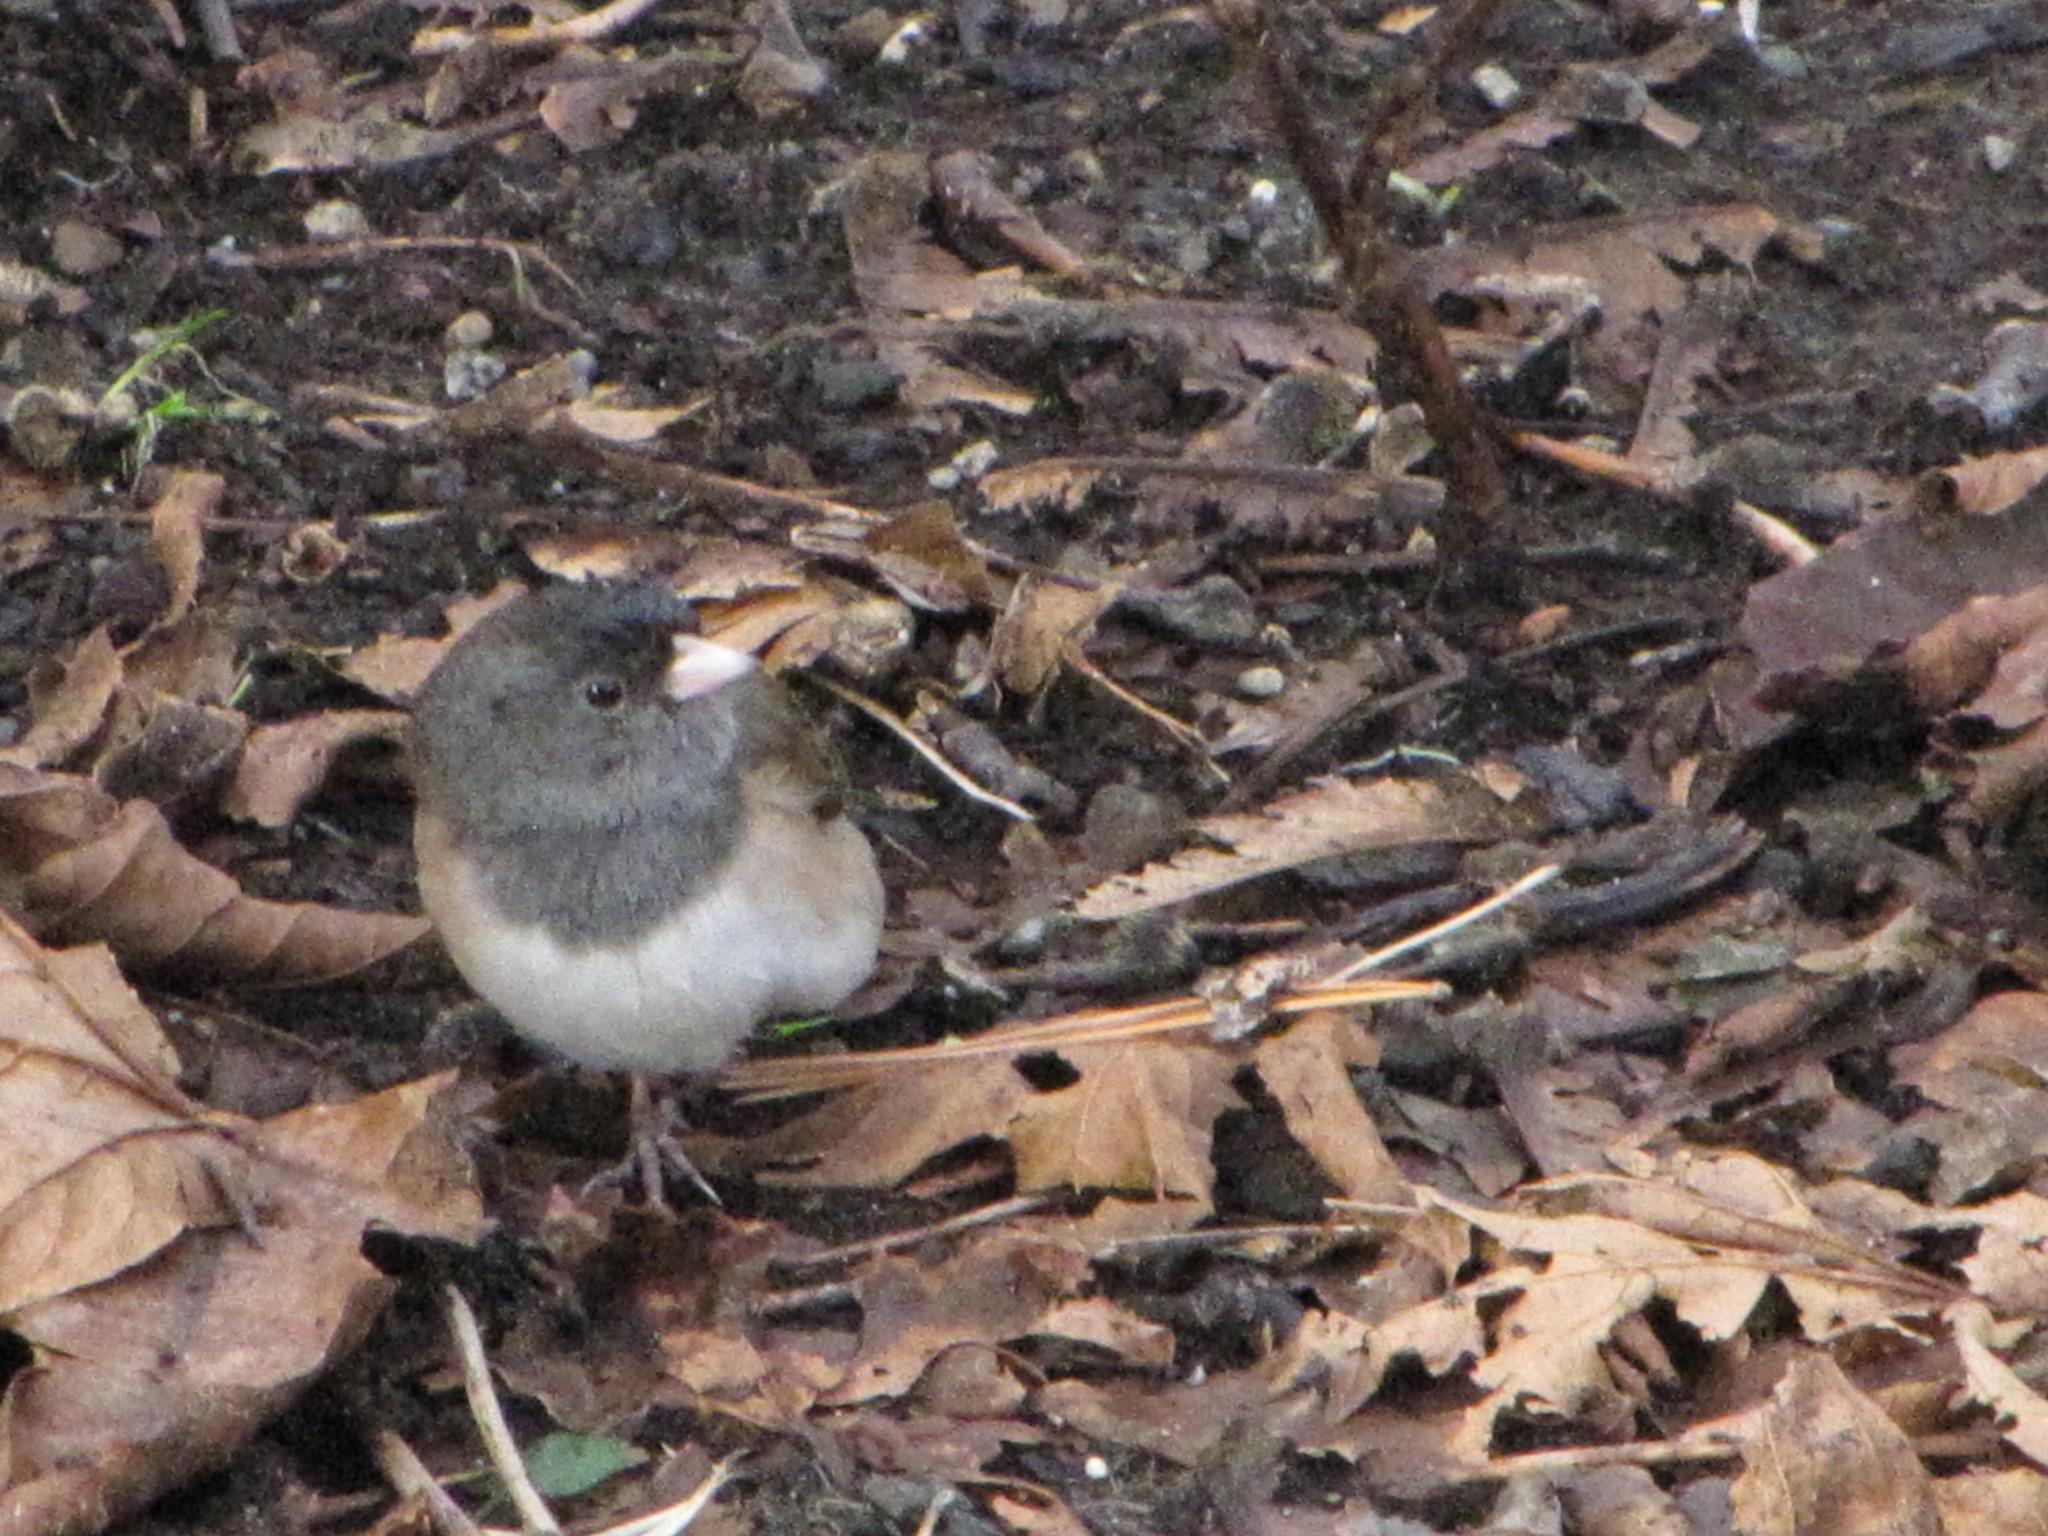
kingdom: Animalia
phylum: Chordata
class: Aves
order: Passeriformes
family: Passerellidae
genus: Junco
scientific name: Junco hyemalis
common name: Dark-eyed junco
